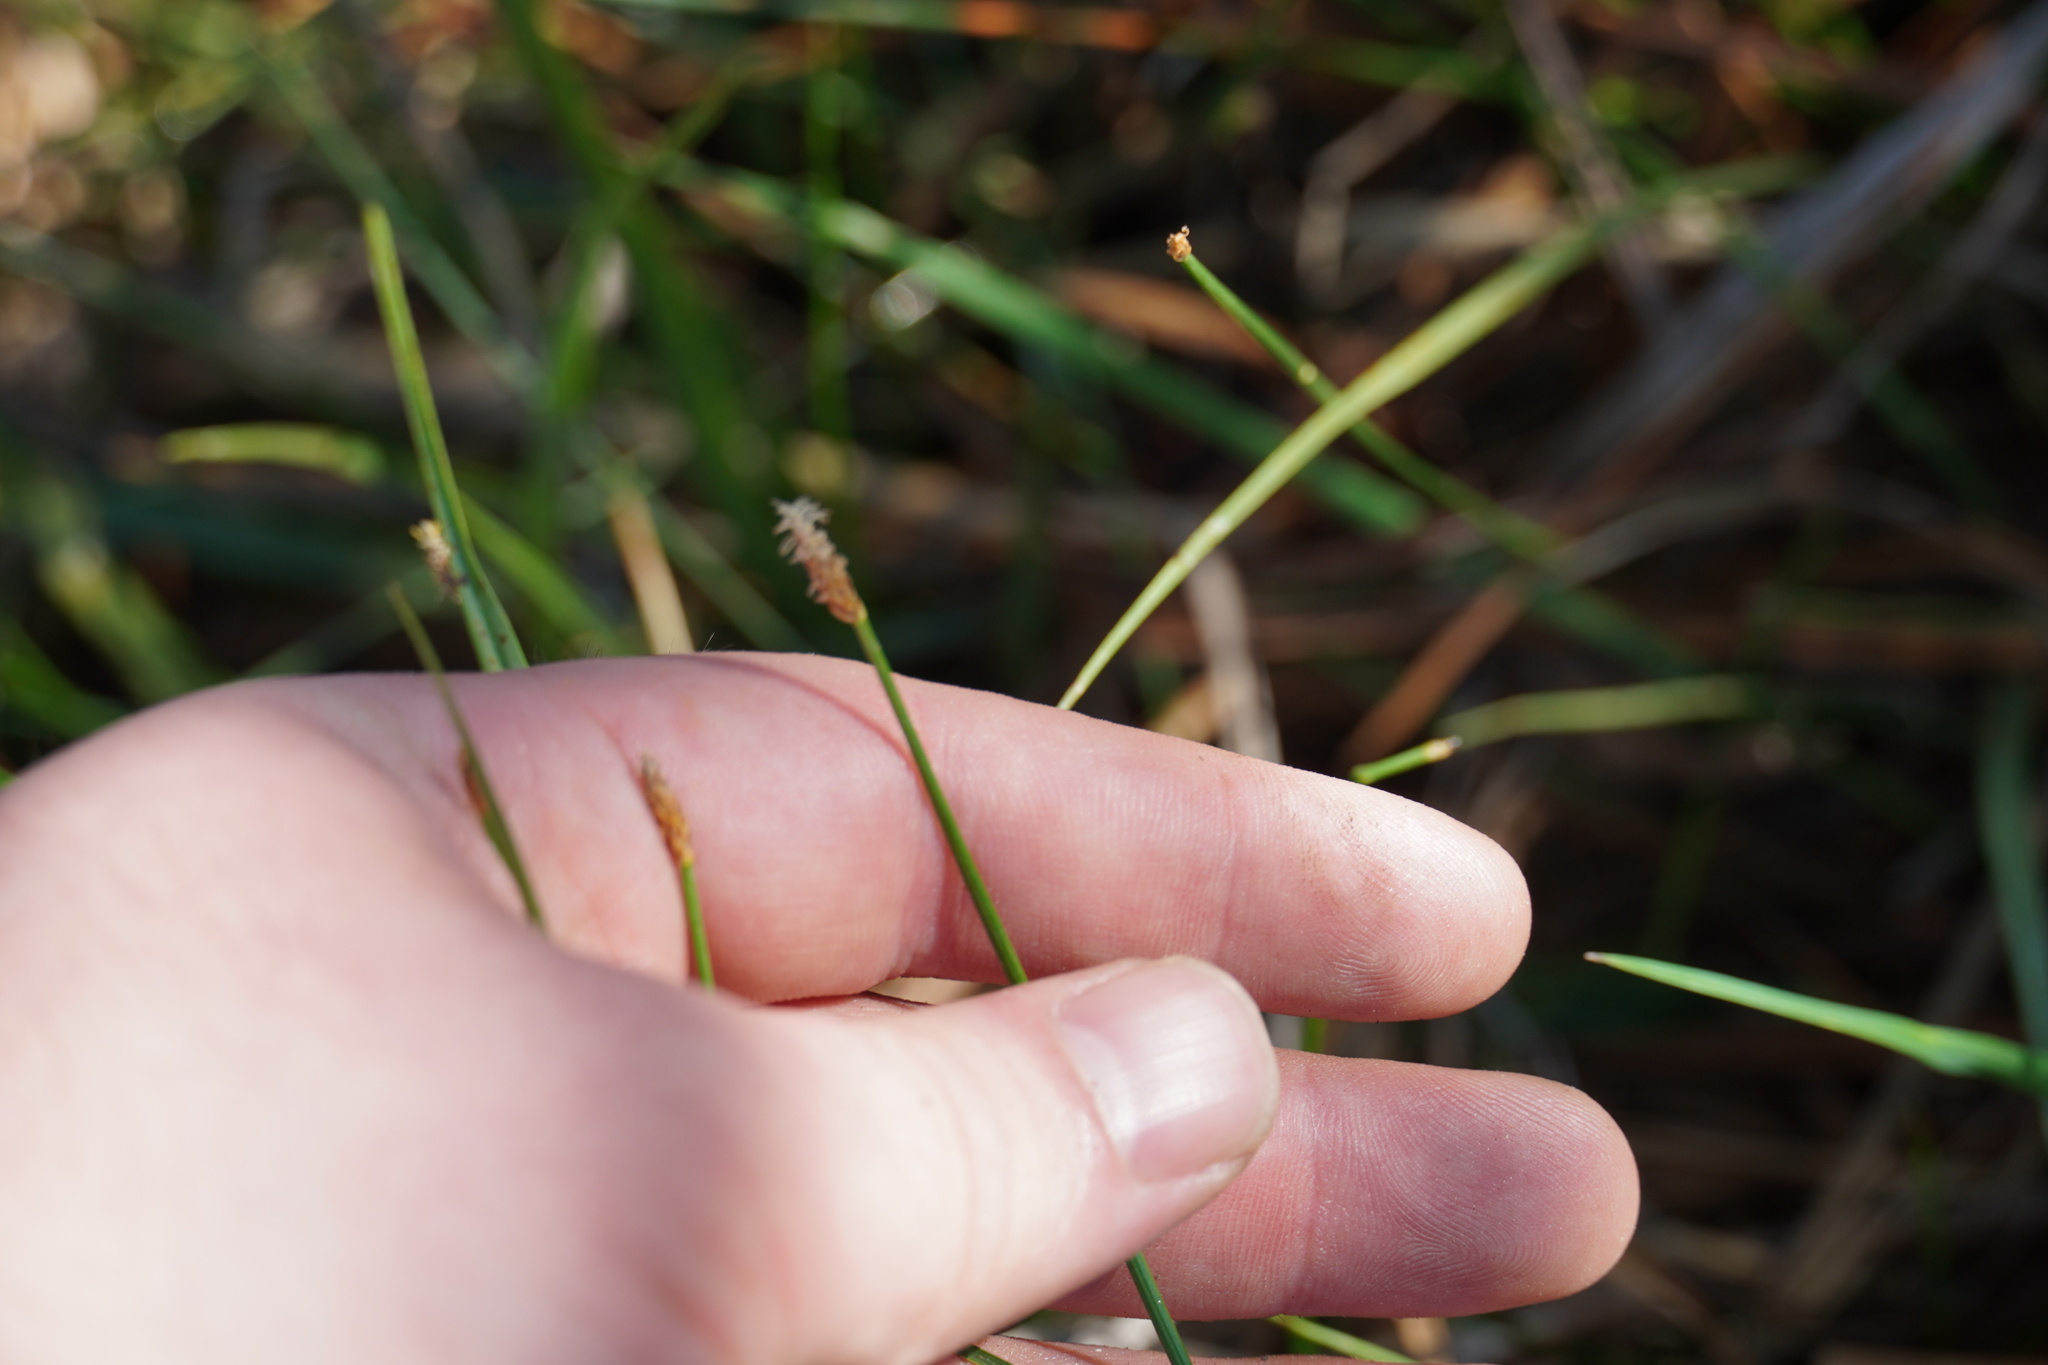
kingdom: Plantae
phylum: Tracheophyta
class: Liliopsida
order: Poales
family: Cyperaceae
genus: Eleocharis
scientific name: Eleocharis dregeana
